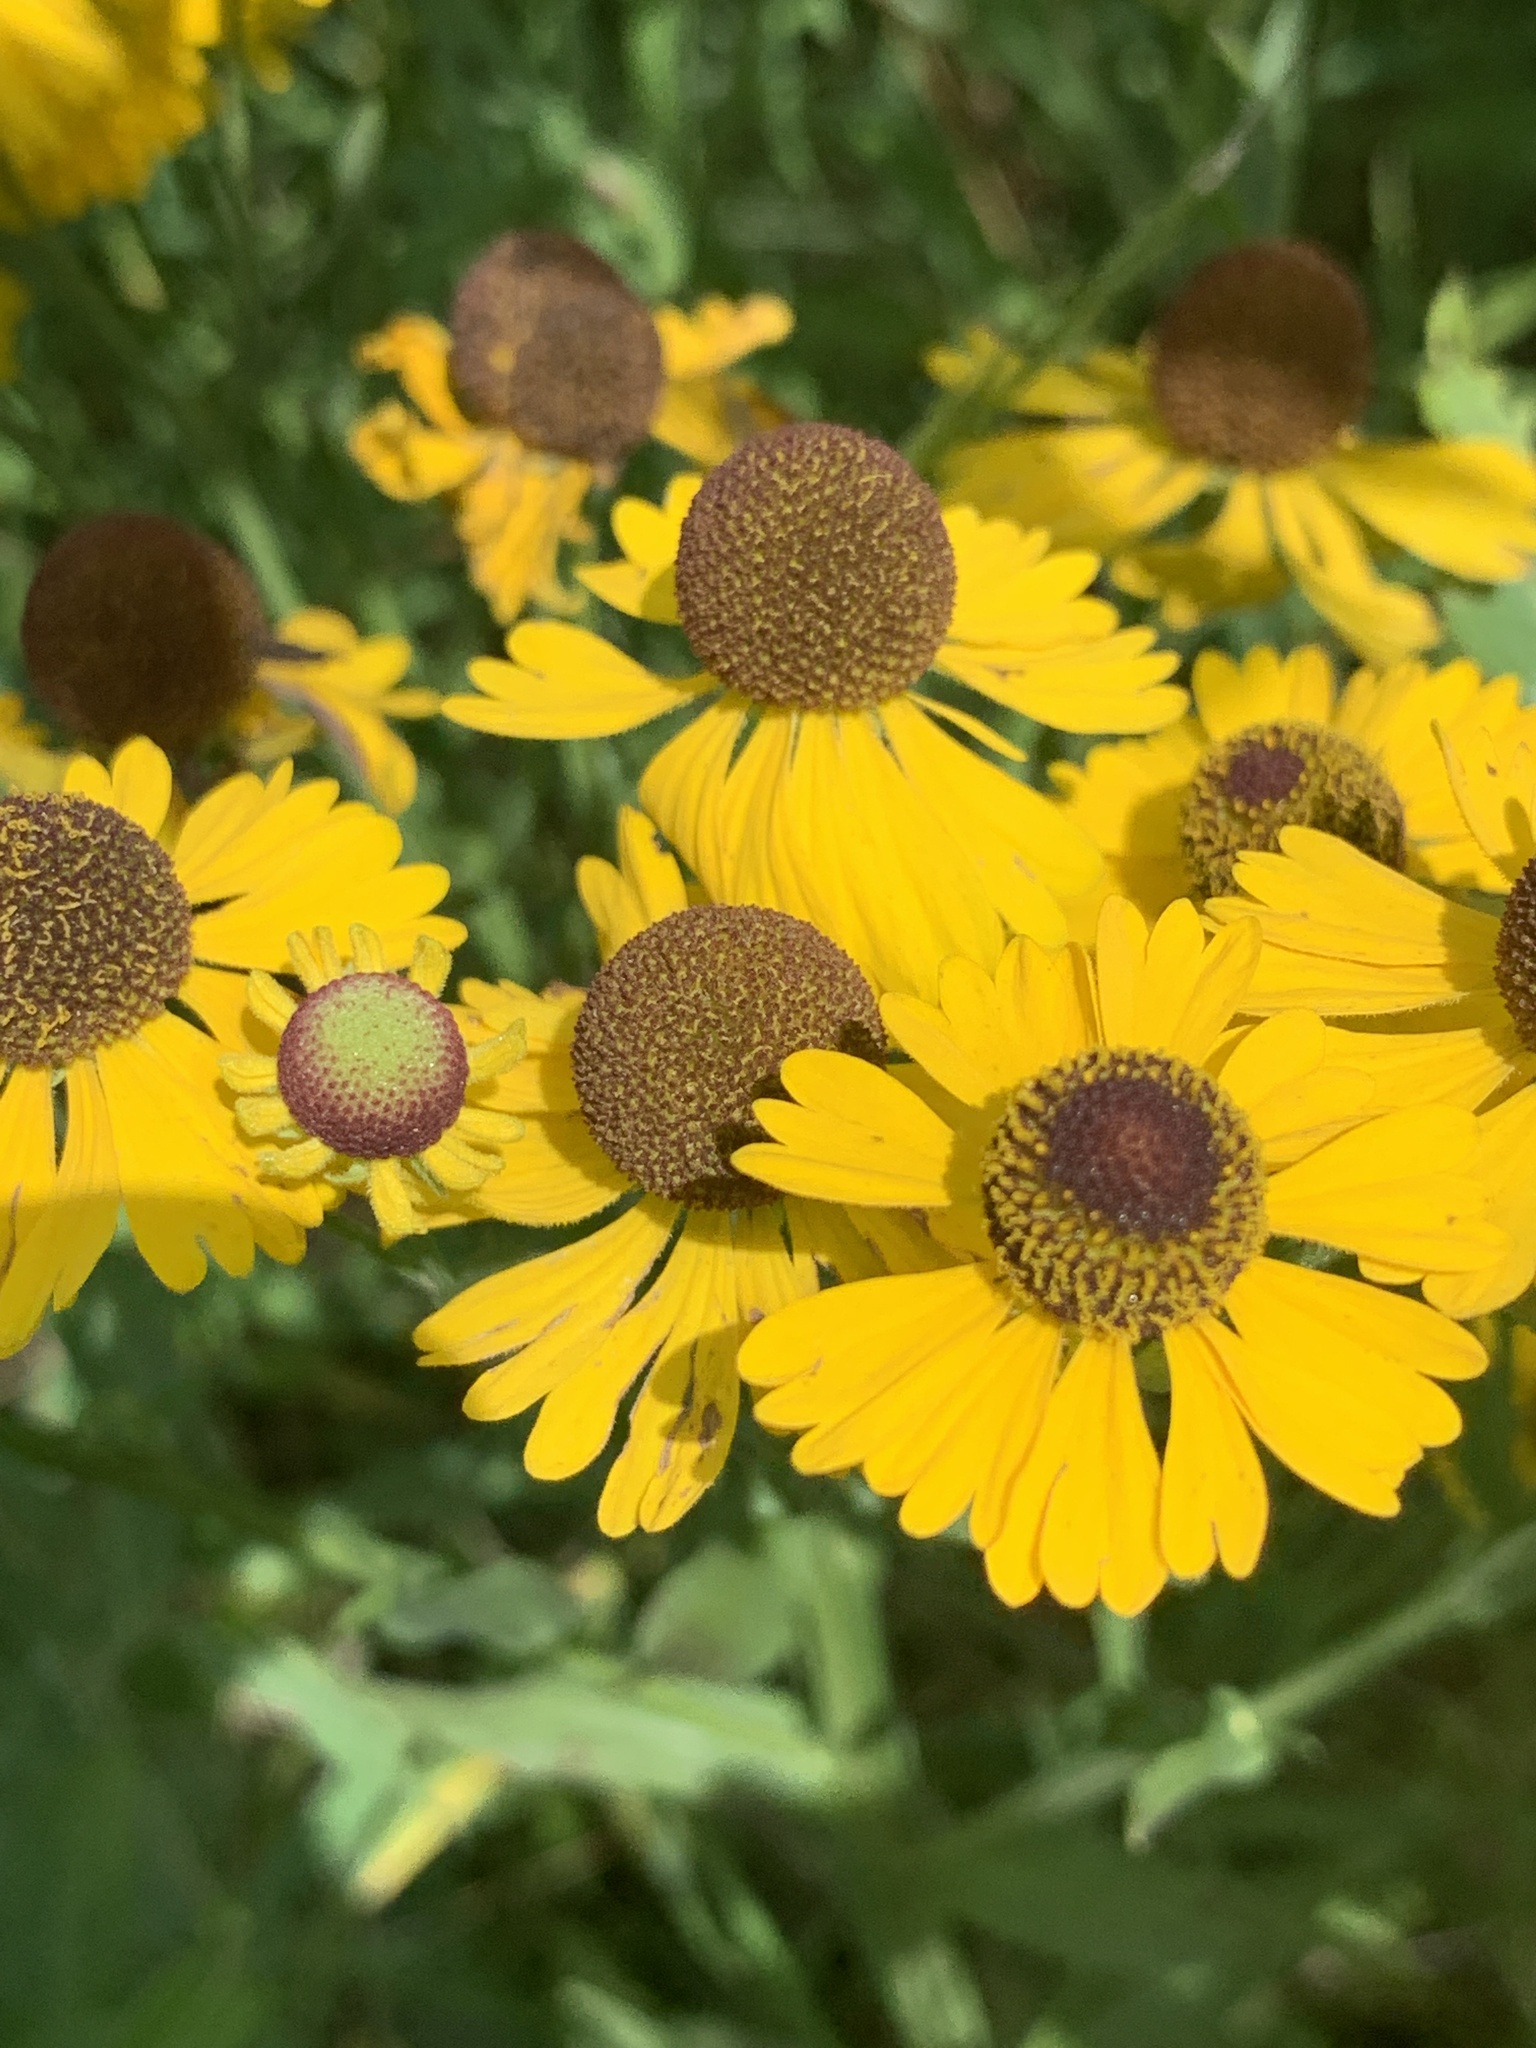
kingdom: Plantae
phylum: Tracheophyta
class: Magnoliopsida
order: Asterales
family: Asteraceae
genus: Helenium
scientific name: Helenium flexuosum
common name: Naked-flowered sneezeweed
